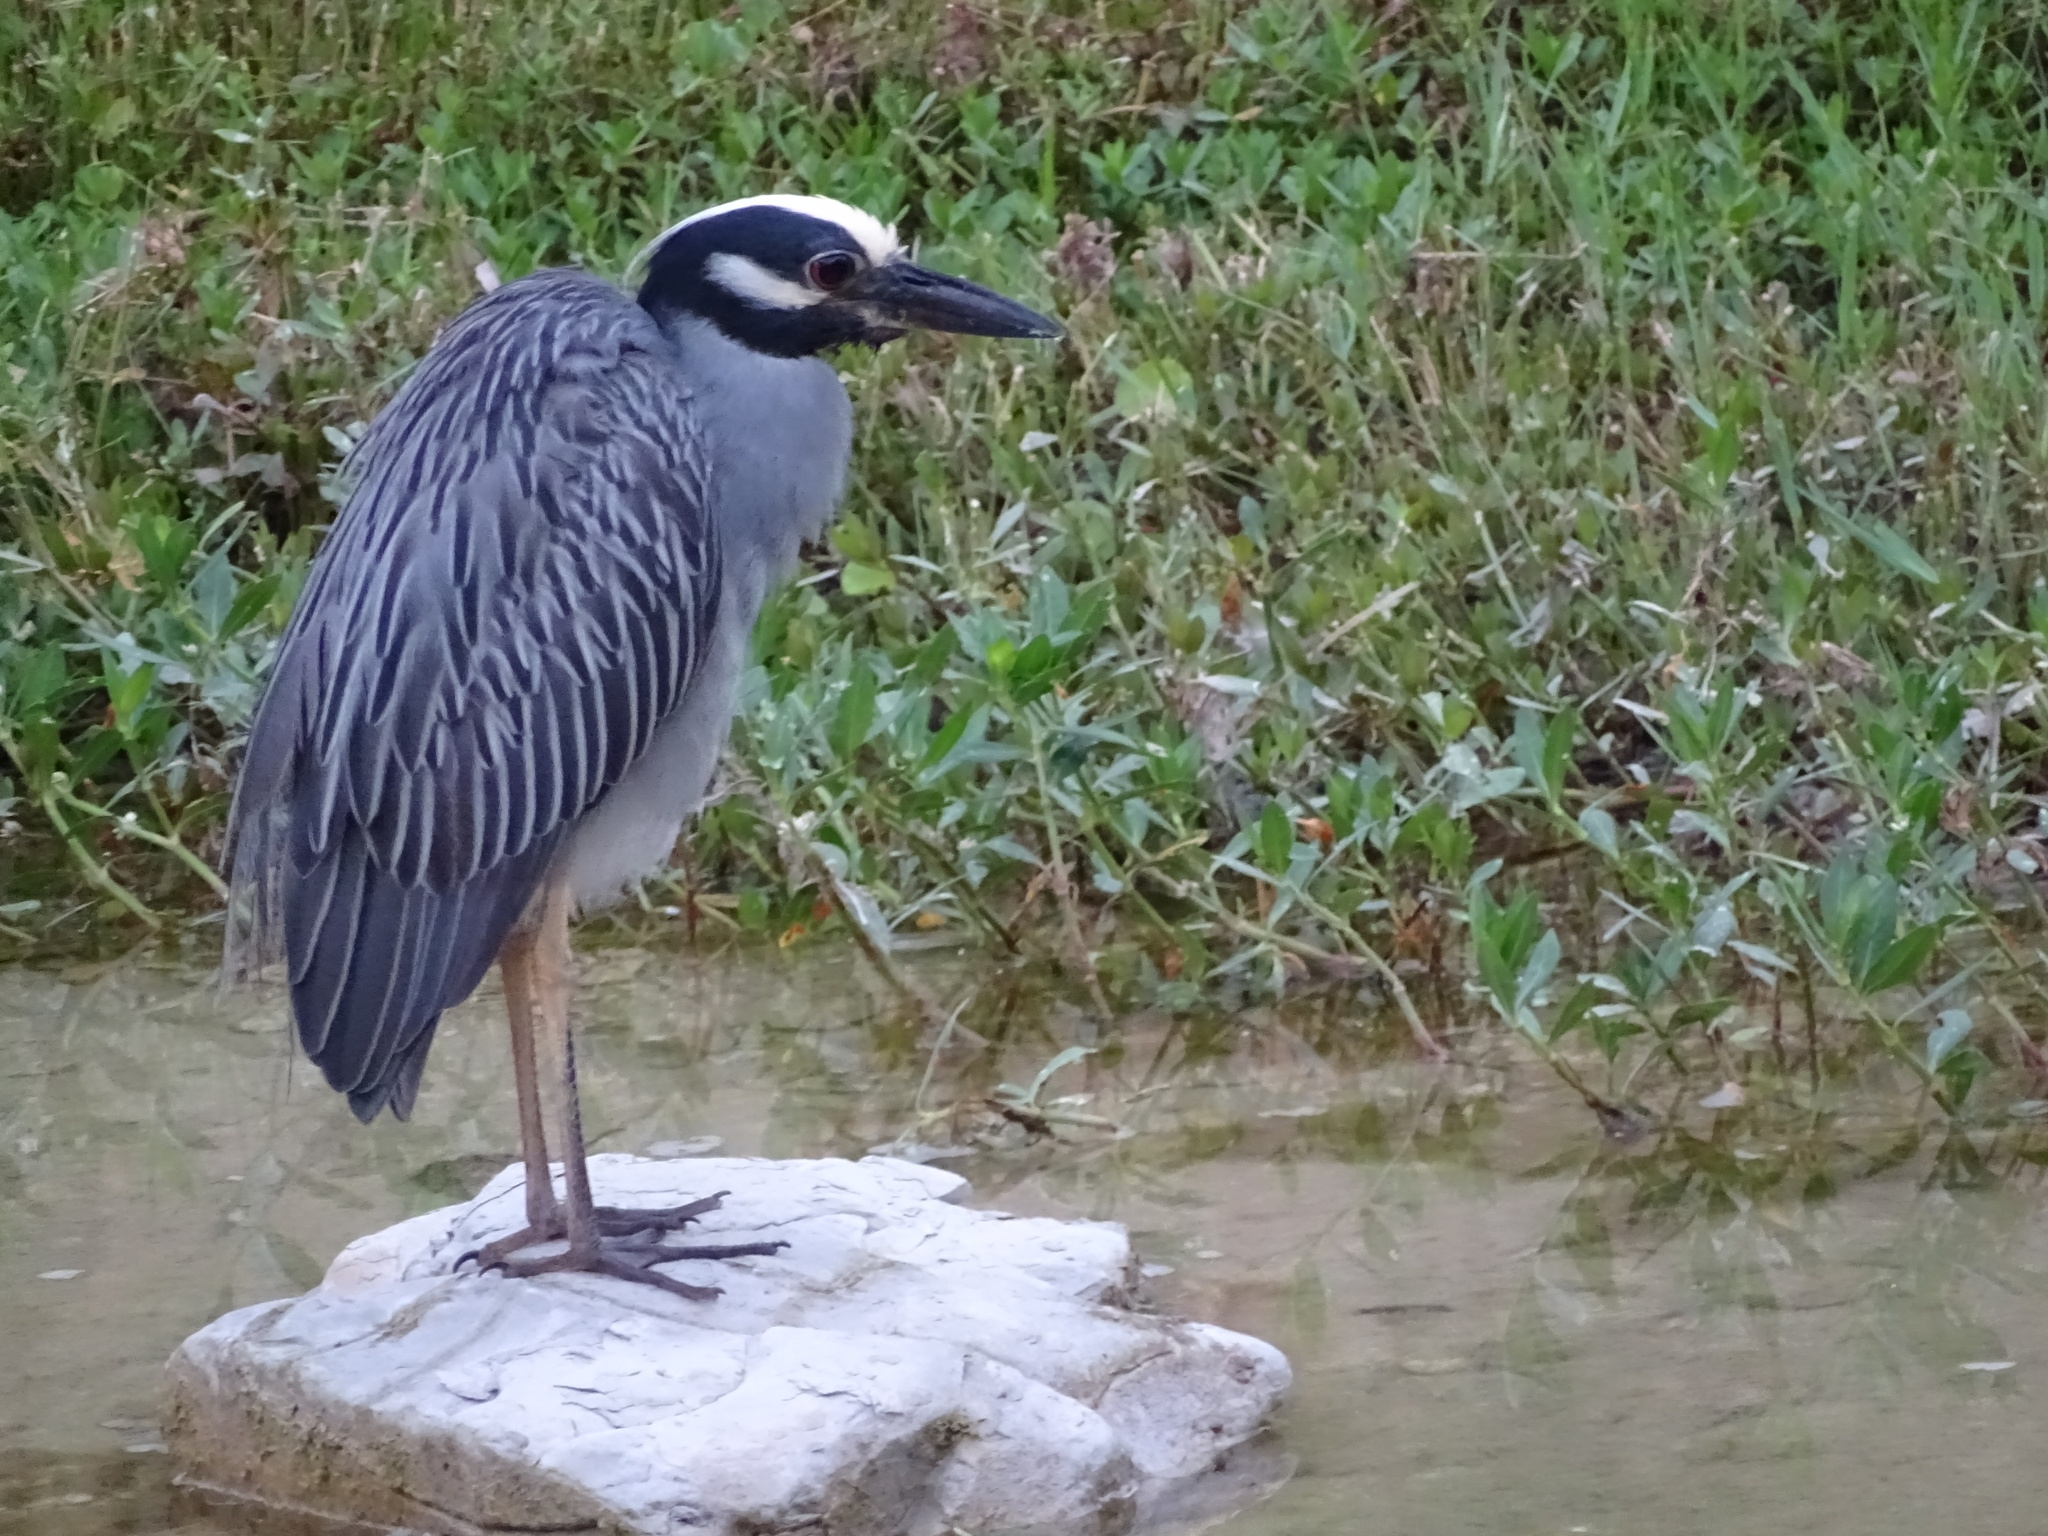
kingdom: Animalia
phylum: Chordata
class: Aves
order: Pelecaniformes
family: Ardeidae
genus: Nyctanassa
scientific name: Nyctanassa violacea
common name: Yellow-crowned night heron
